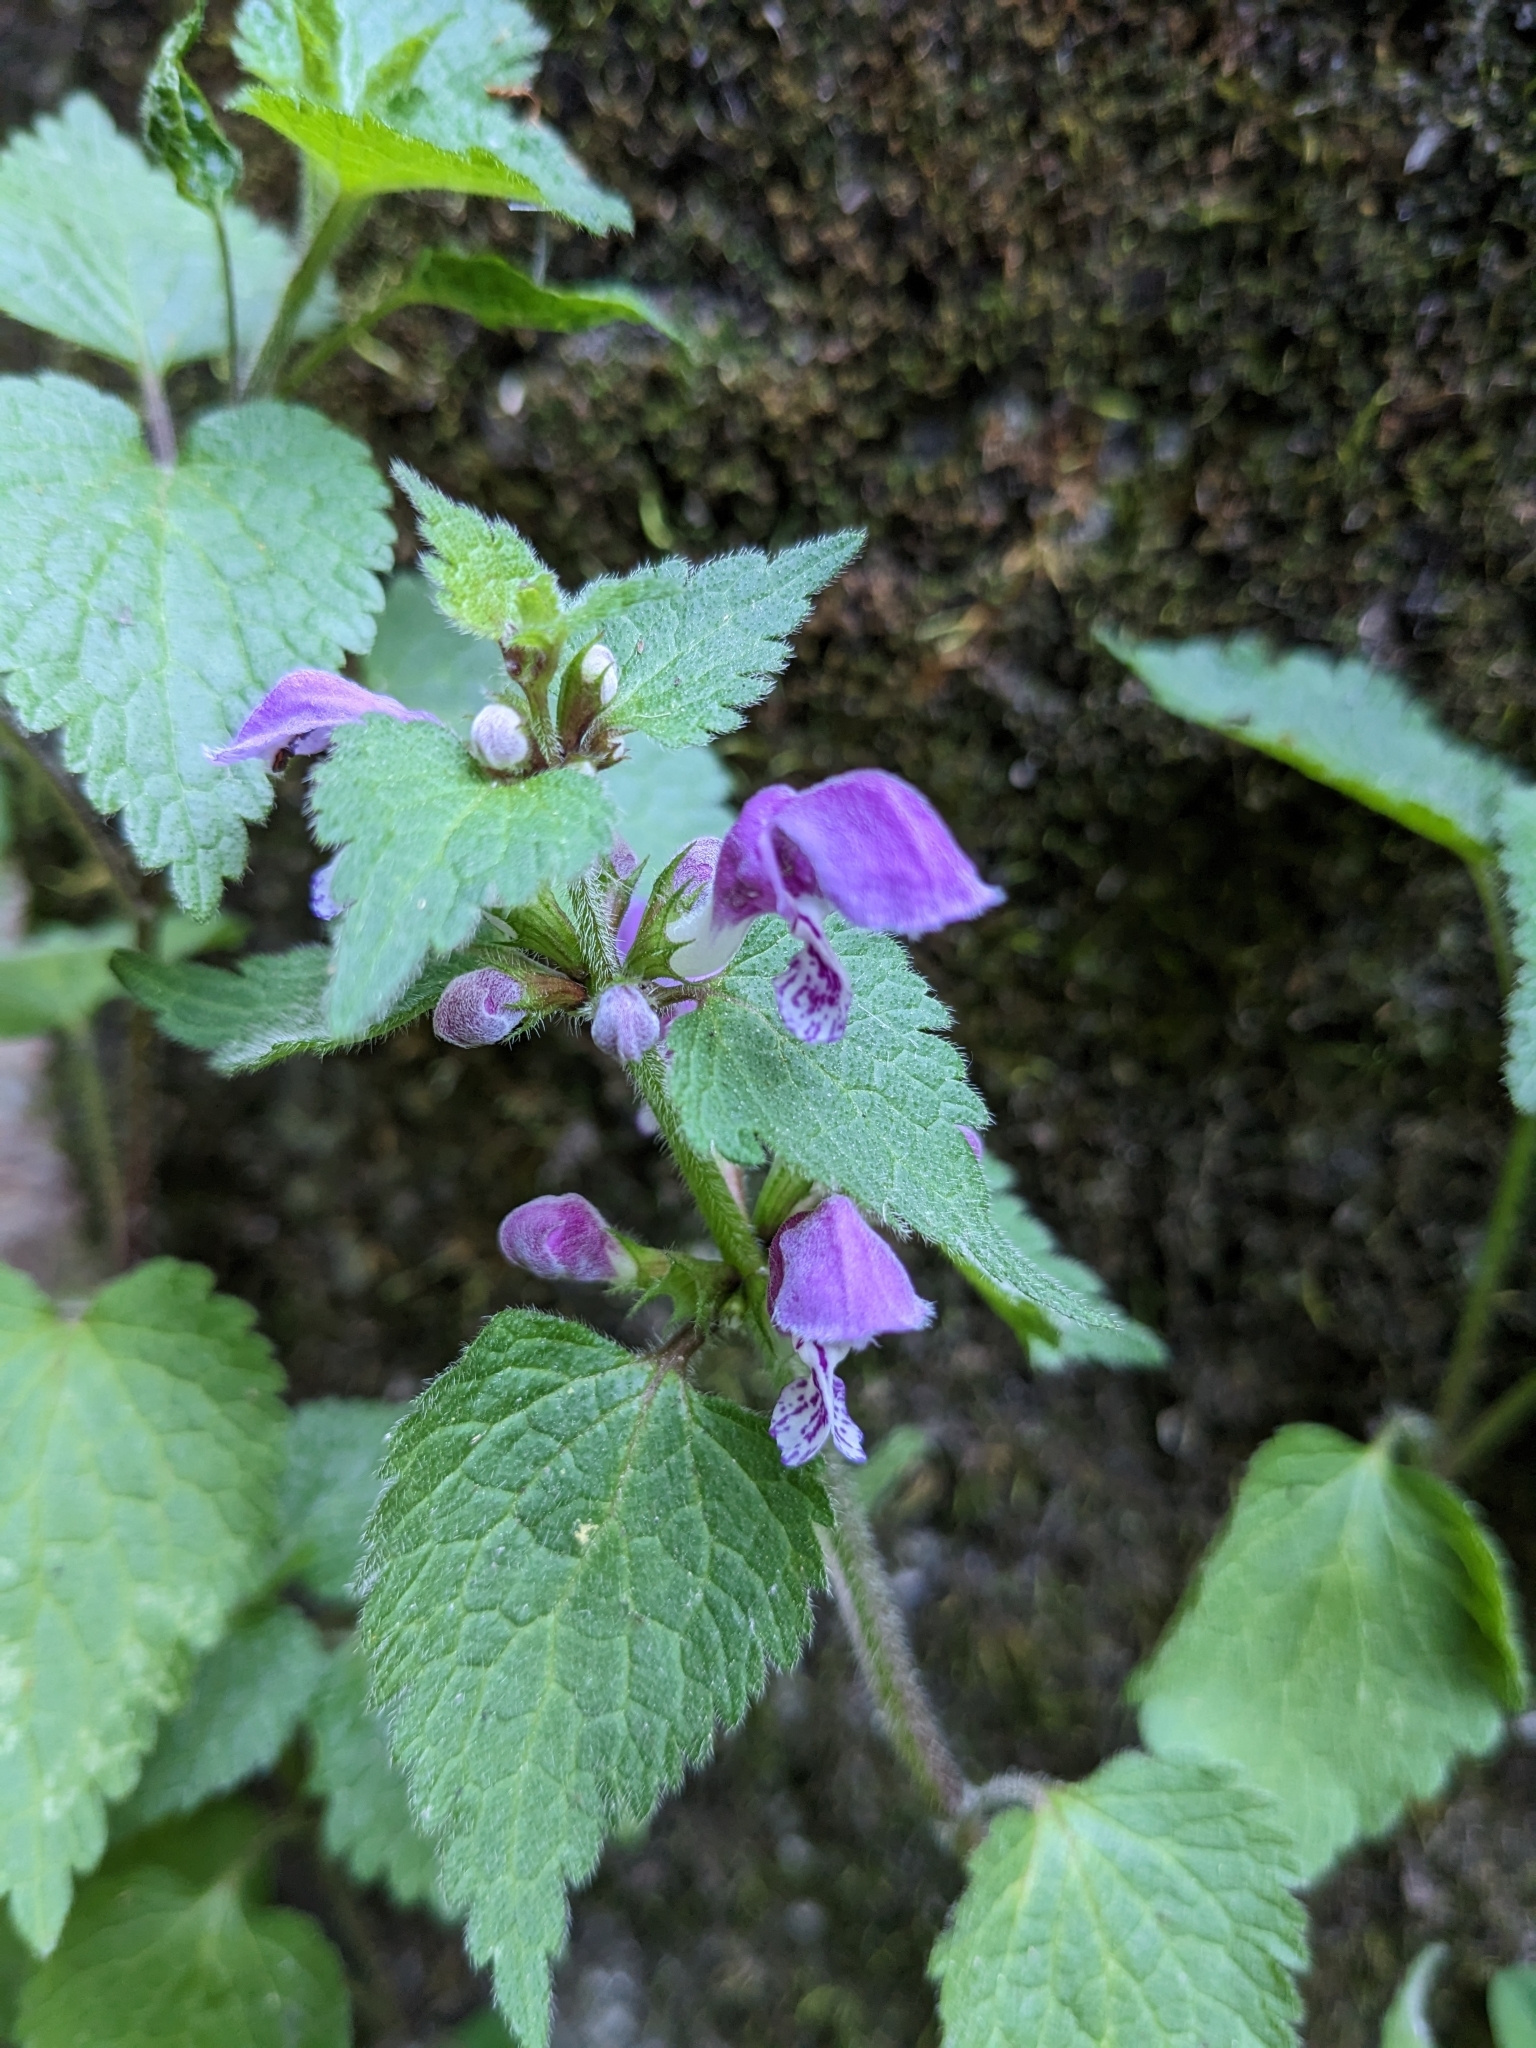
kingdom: Plantae
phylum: Tracheophyta
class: Magnoliopsida
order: Lamiales
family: Lamiaceae
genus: Lamium
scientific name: Lamium maculatum
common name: Spotted dead-nettle
